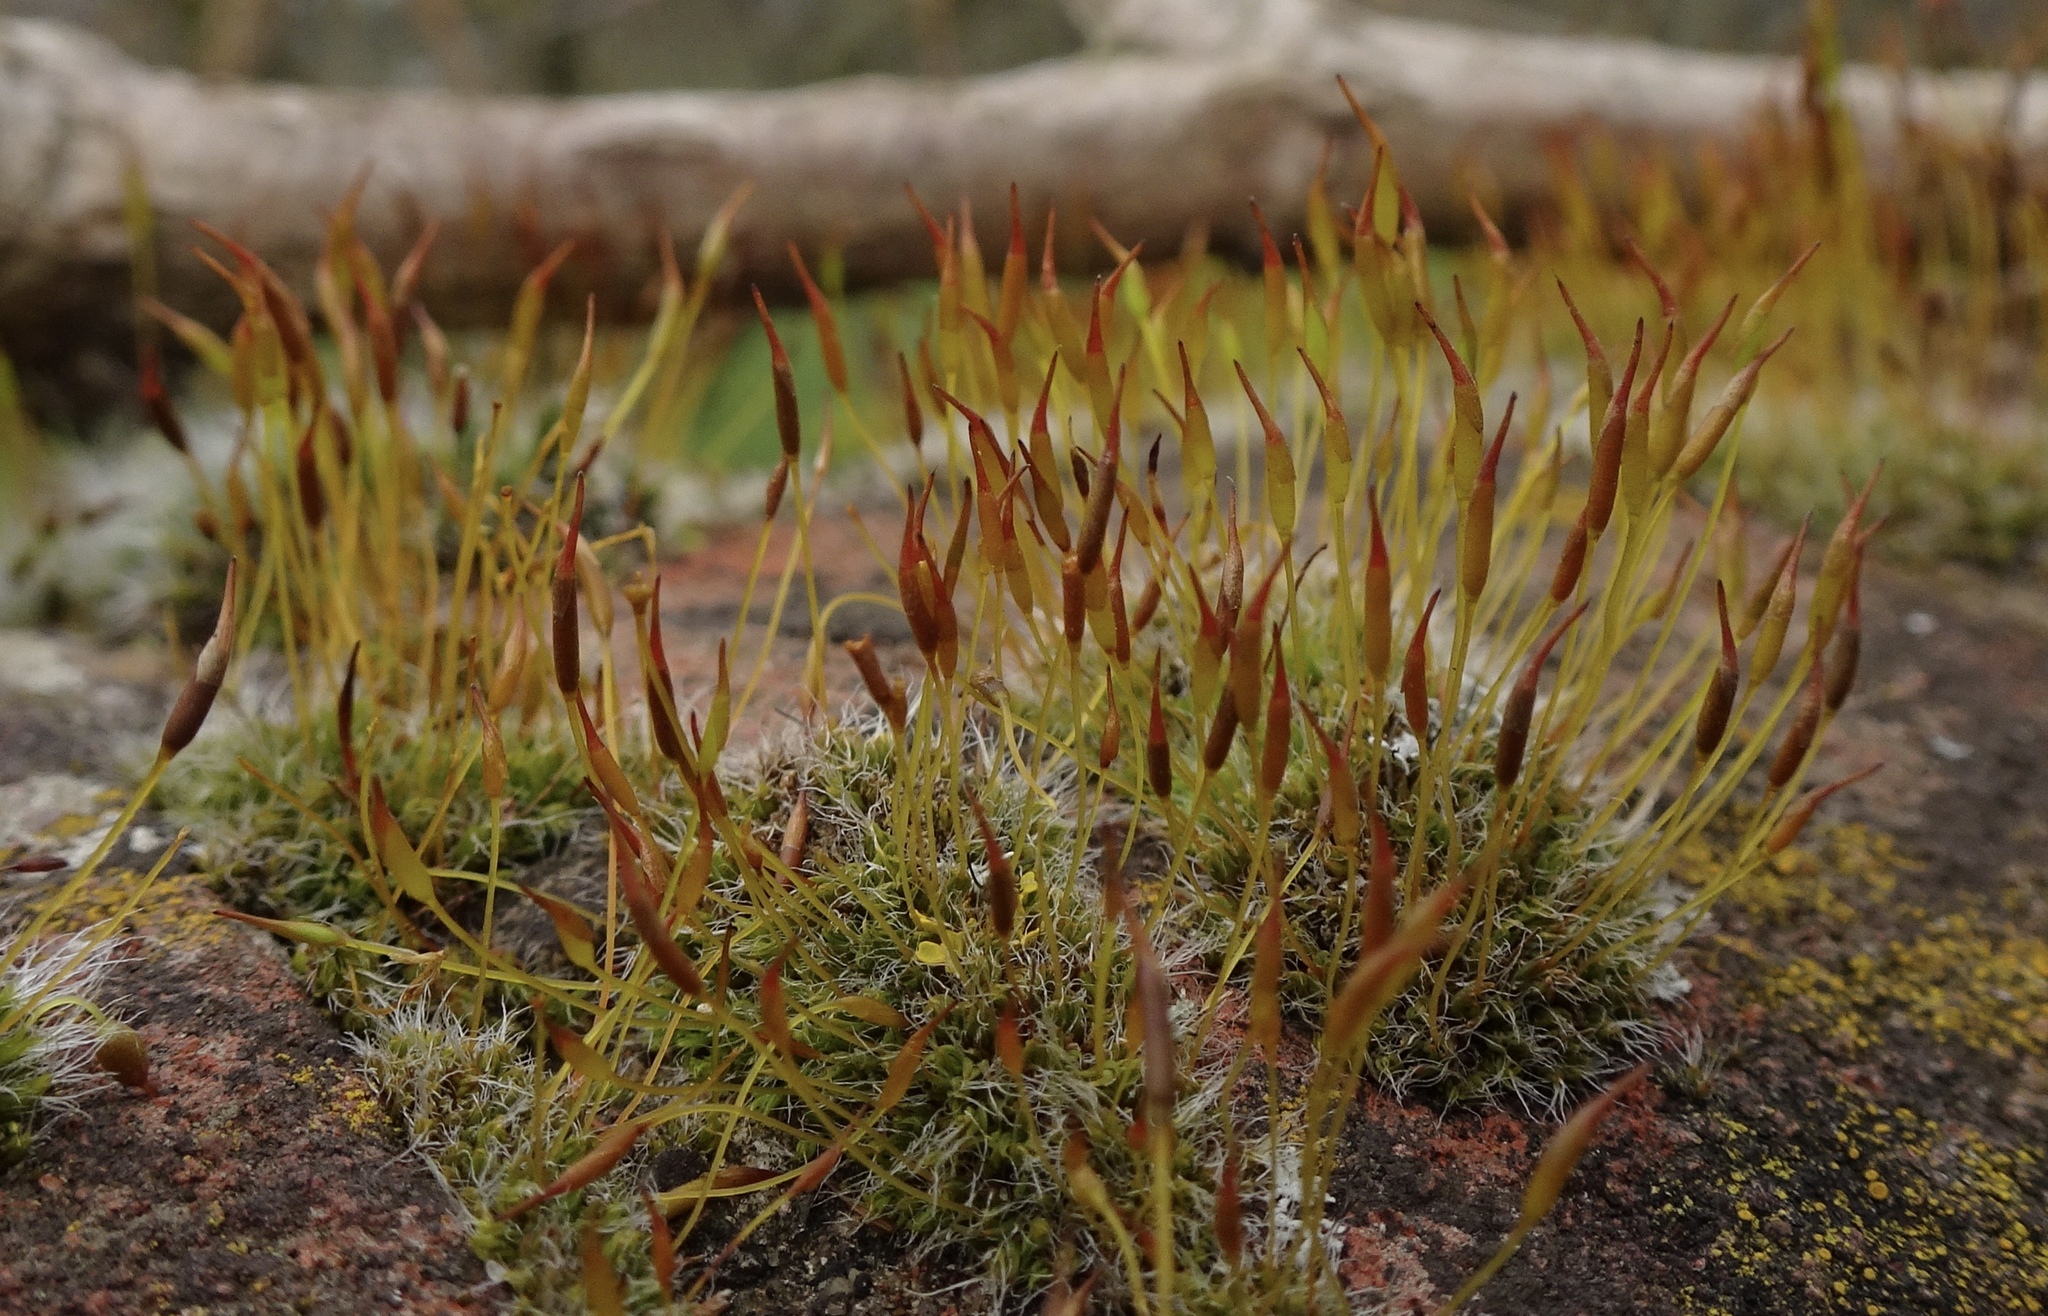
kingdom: Plantae
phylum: Bryophyta
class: Bryopsida
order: Pottiales
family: Pottiaceae
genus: Tortula
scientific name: Tortula muralis
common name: Wall screw-moss
